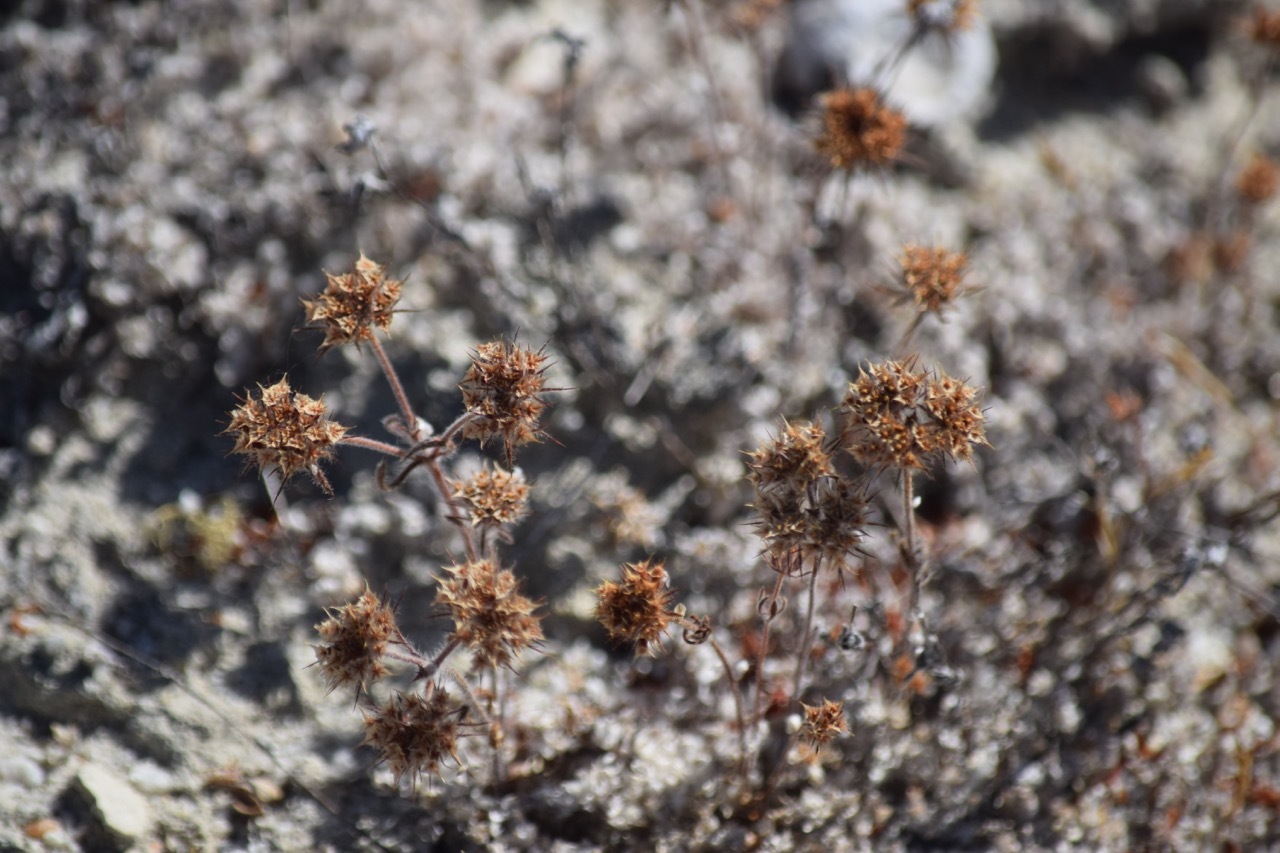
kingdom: Plantae
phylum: Tracheophyta
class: Magnoliopsida
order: Caryophyllales
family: Polygonaceae
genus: Chorizanthe
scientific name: Chorizanthe douglasii
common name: Douglas's spineflower
